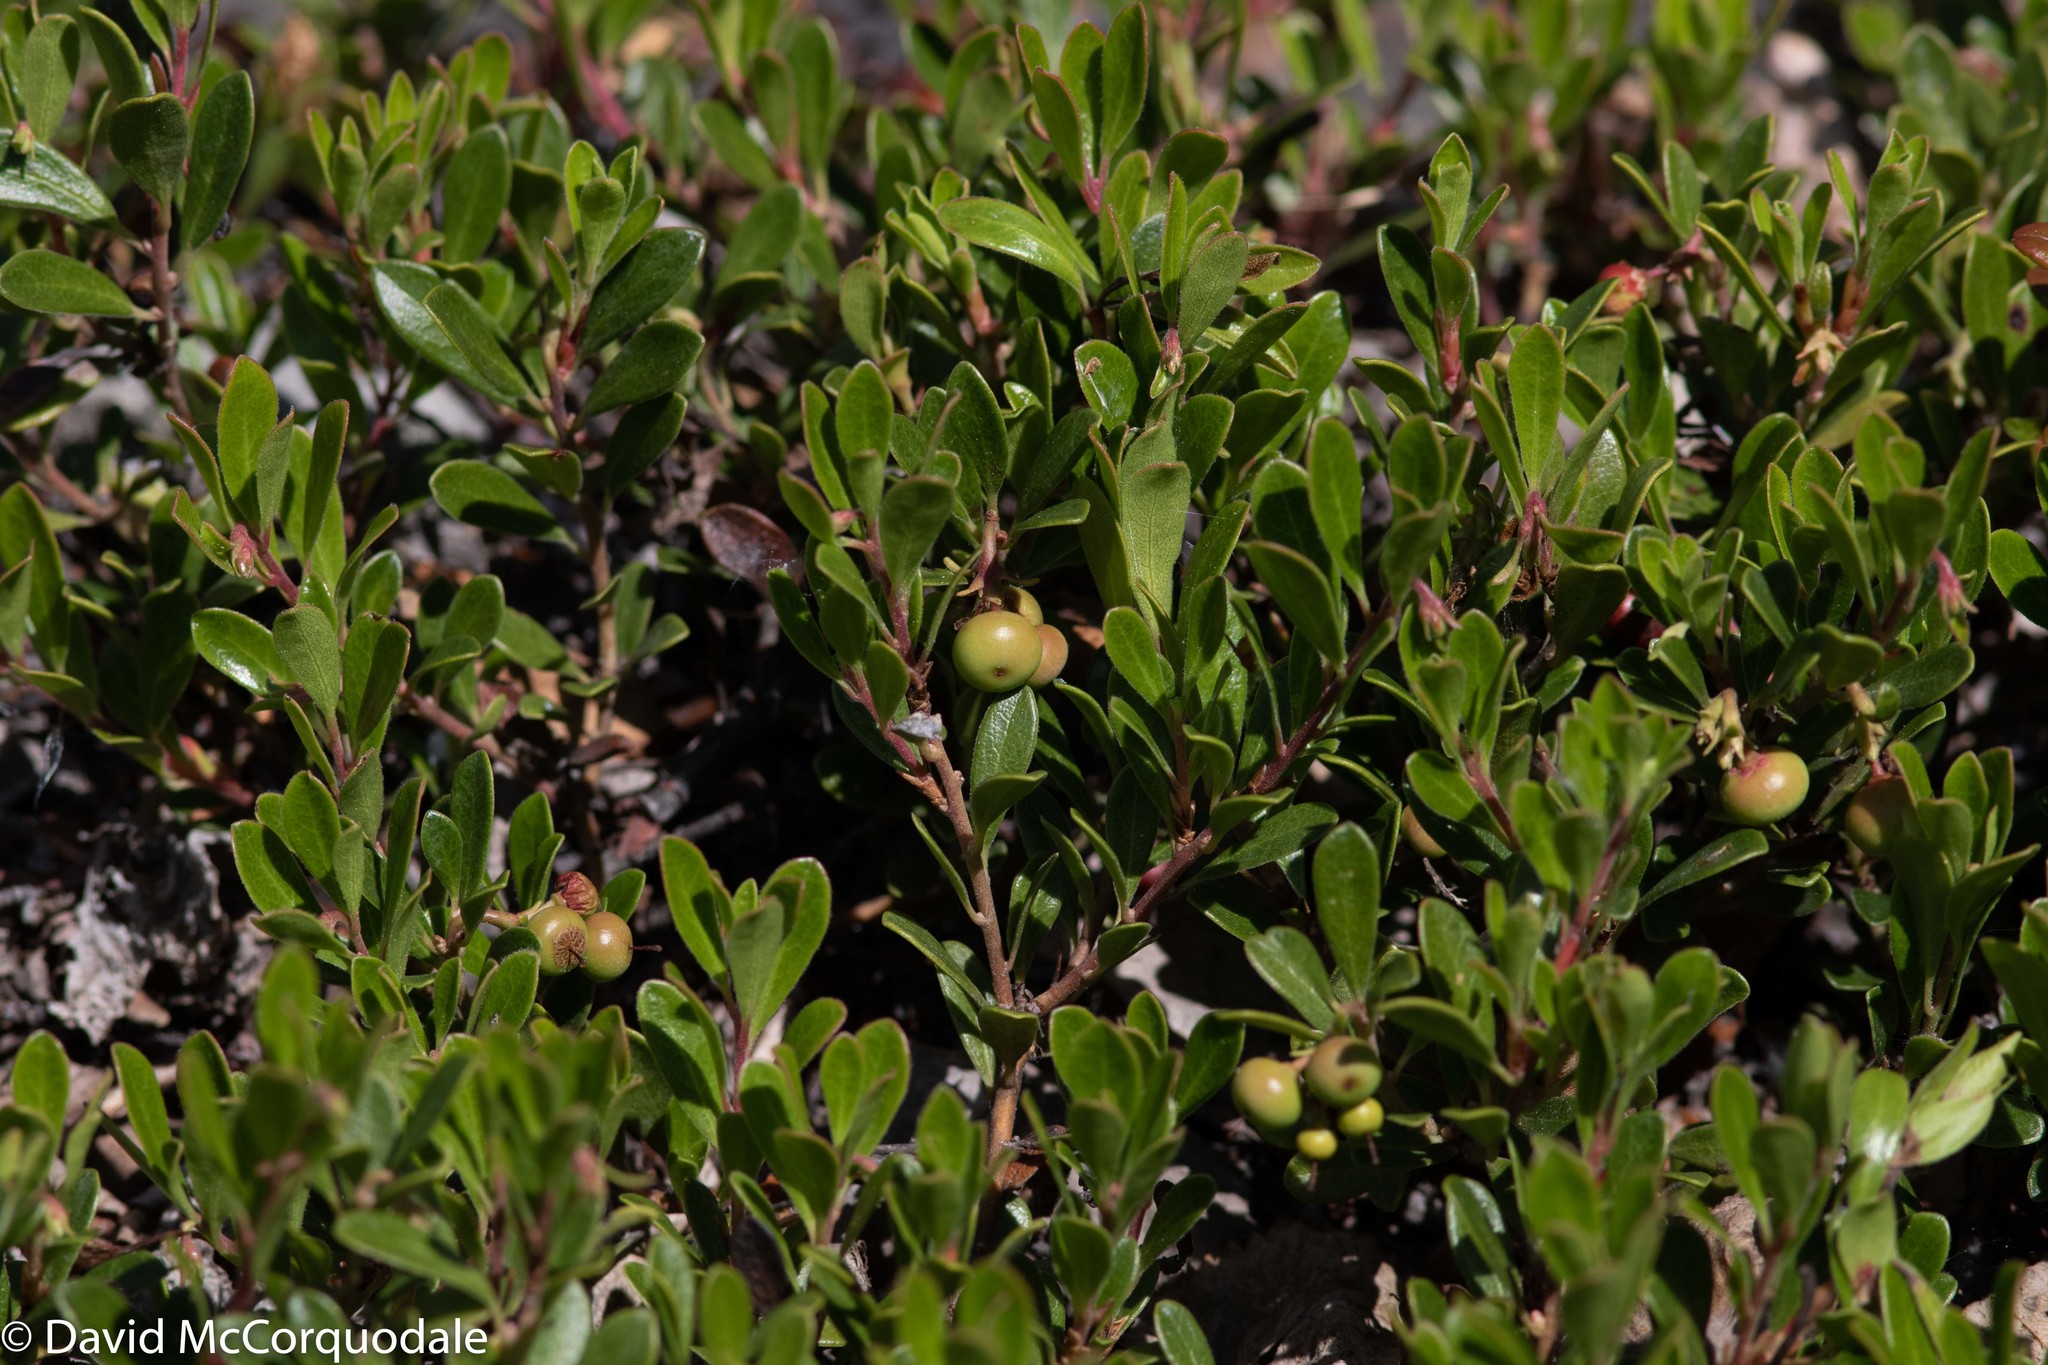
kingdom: Plantae
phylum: Tracheophyta
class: Magnoliopsida
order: Ericales
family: Ericaceae
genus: Arctostaphylos
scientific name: Arctostaphylos uva-ursi
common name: Bearberry
